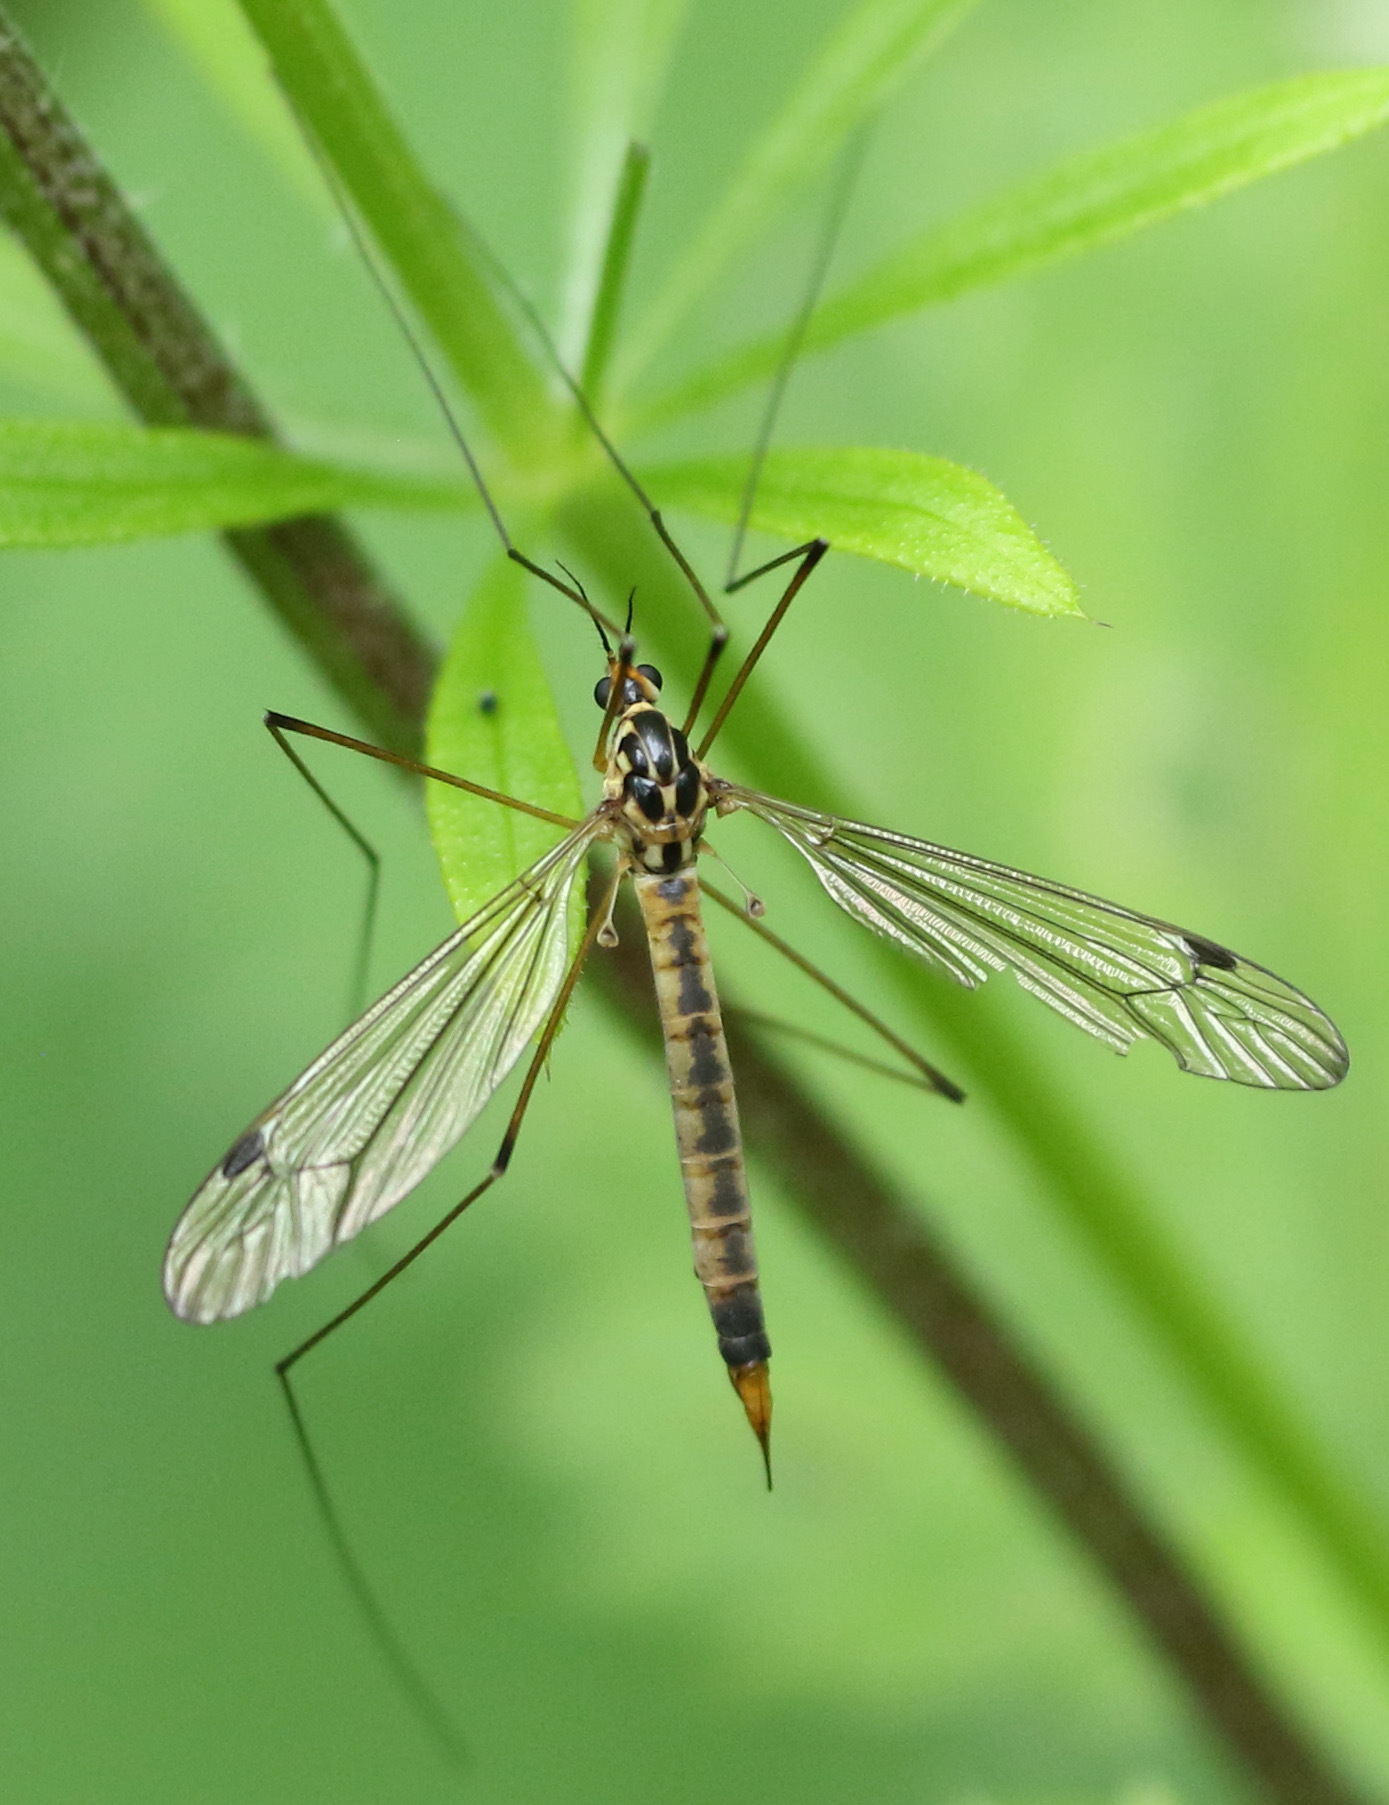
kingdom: Animalia
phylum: Arthropoda
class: Insecta
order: Diptera
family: Tipulidae
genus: Nephrotoma
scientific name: Nephrotoma analis
